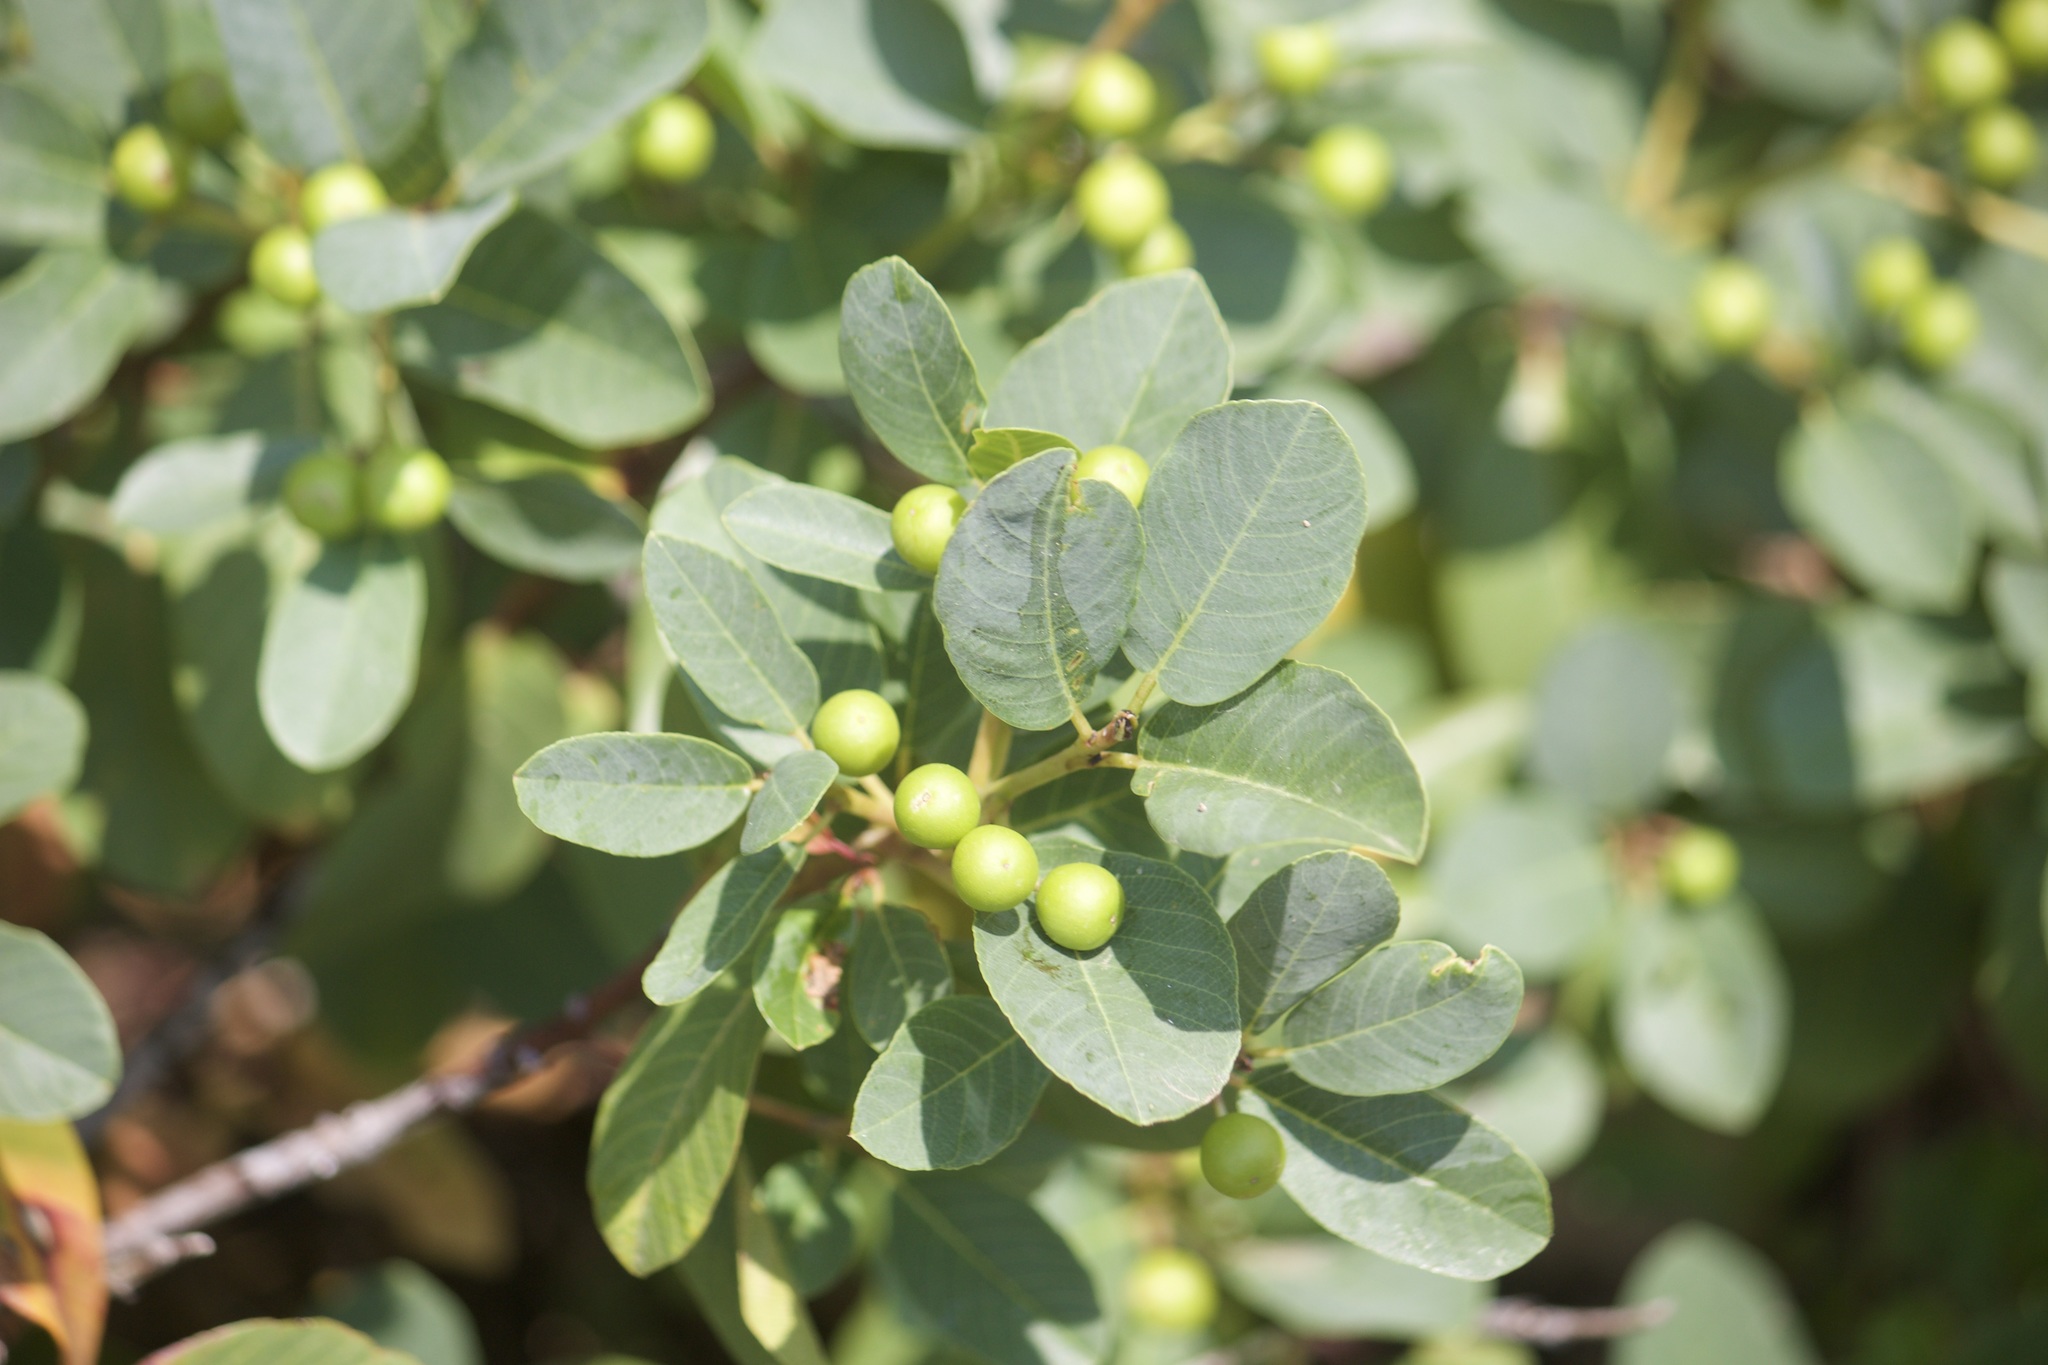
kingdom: Plantae
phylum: Tracheophyta
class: Magnoliopsida
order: Rosales
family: Rhamnaceae
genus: Frangula
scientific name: Frangula californica
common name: California buckthorn
